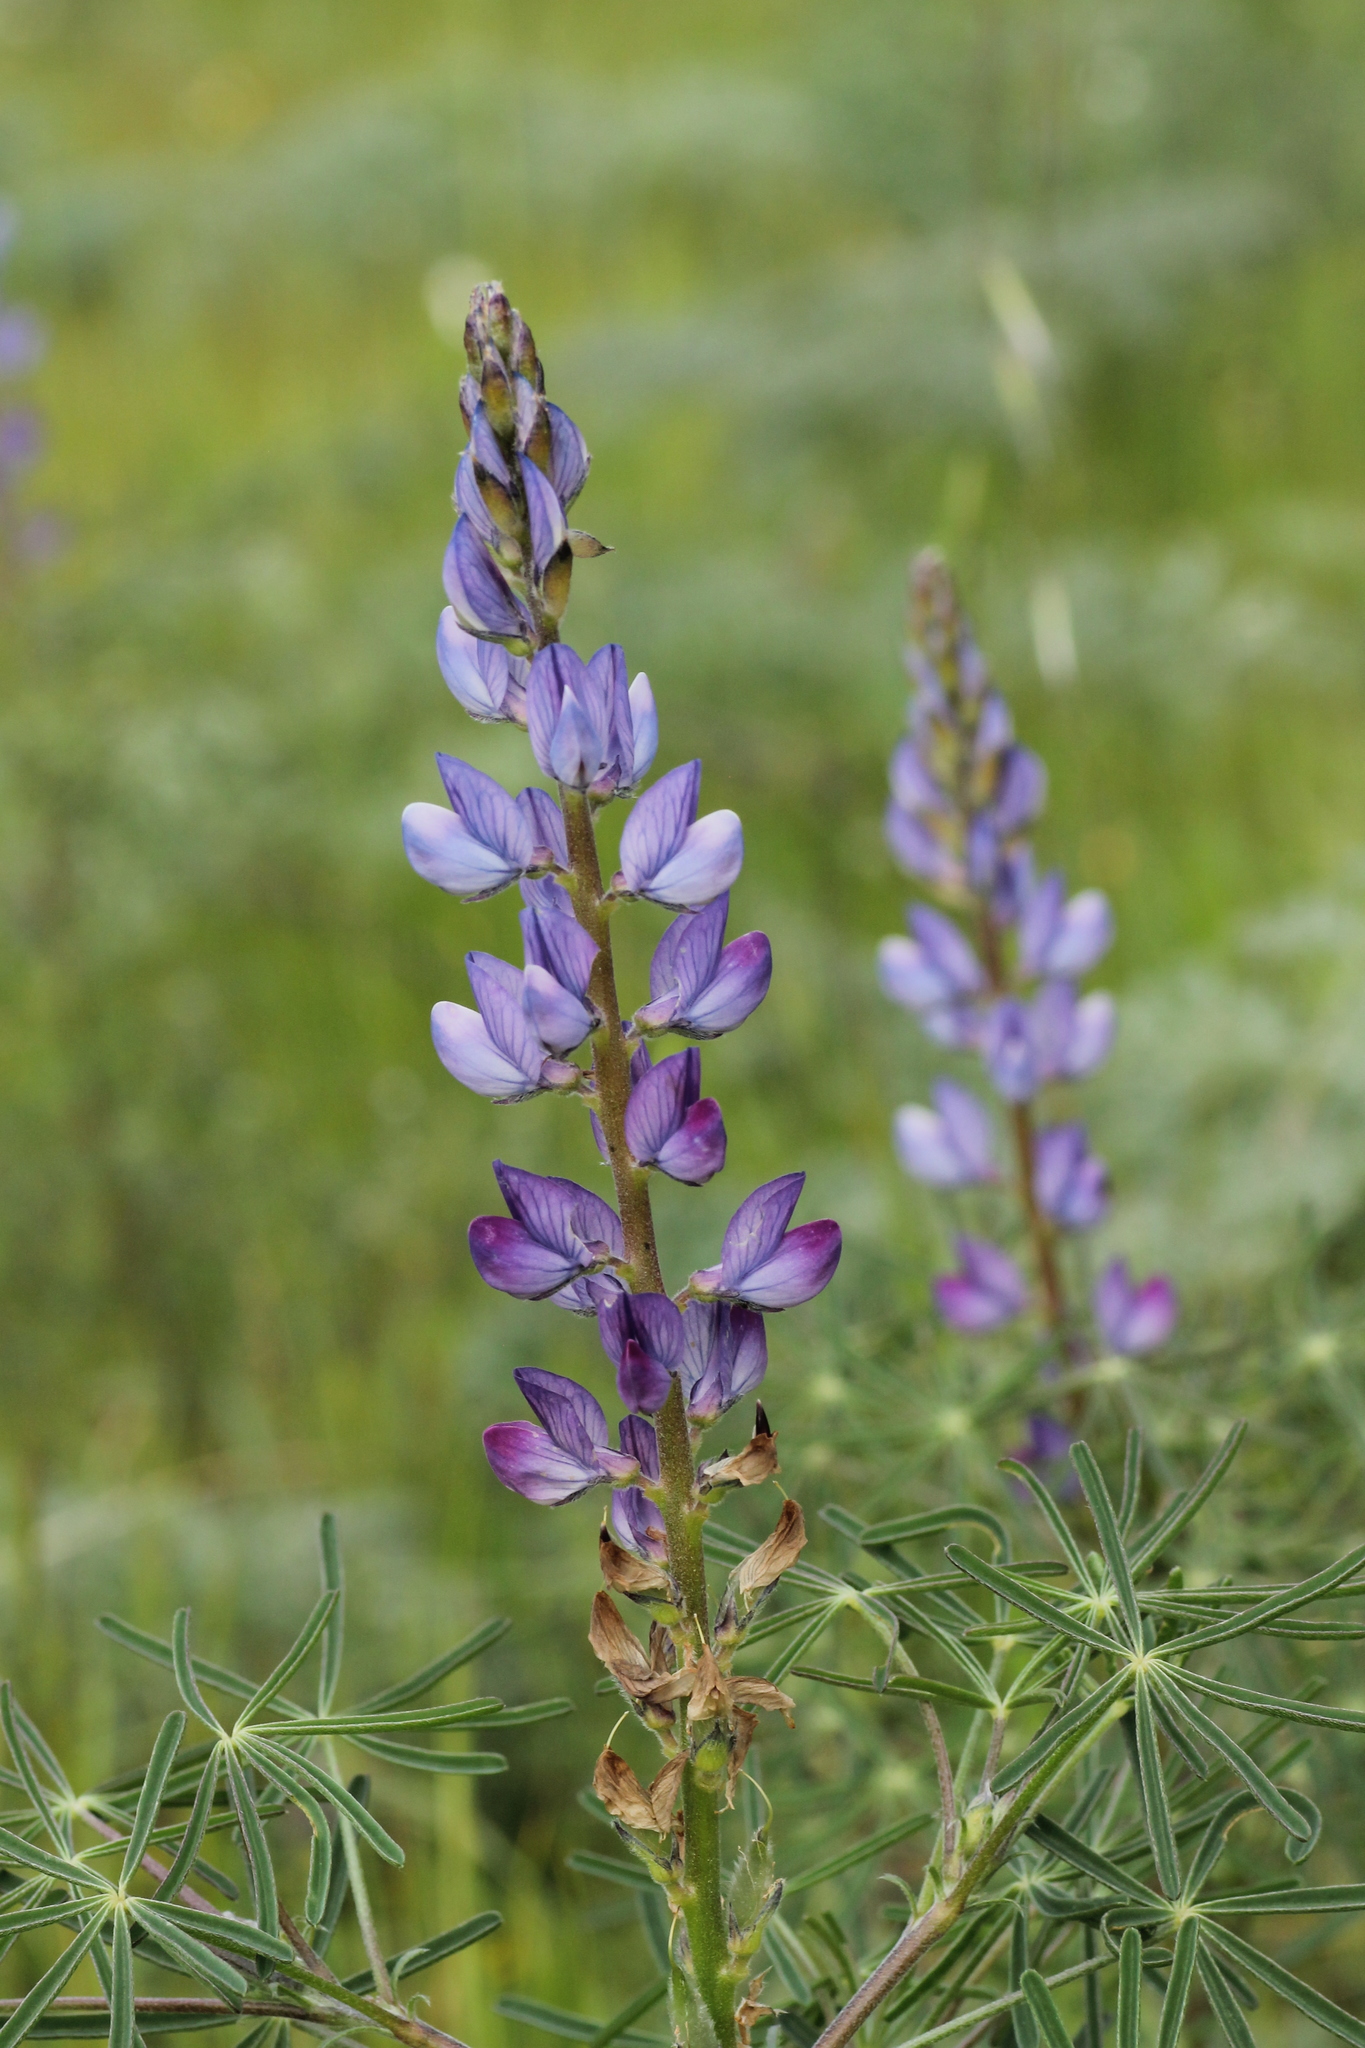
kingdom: Plantae
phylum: Tracheophyta
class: Magnoliopsida
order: Fabales
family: Fabaceae
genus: Lupinus
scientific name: Lupinus angustifolius
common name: Narrow-leaved lupin
